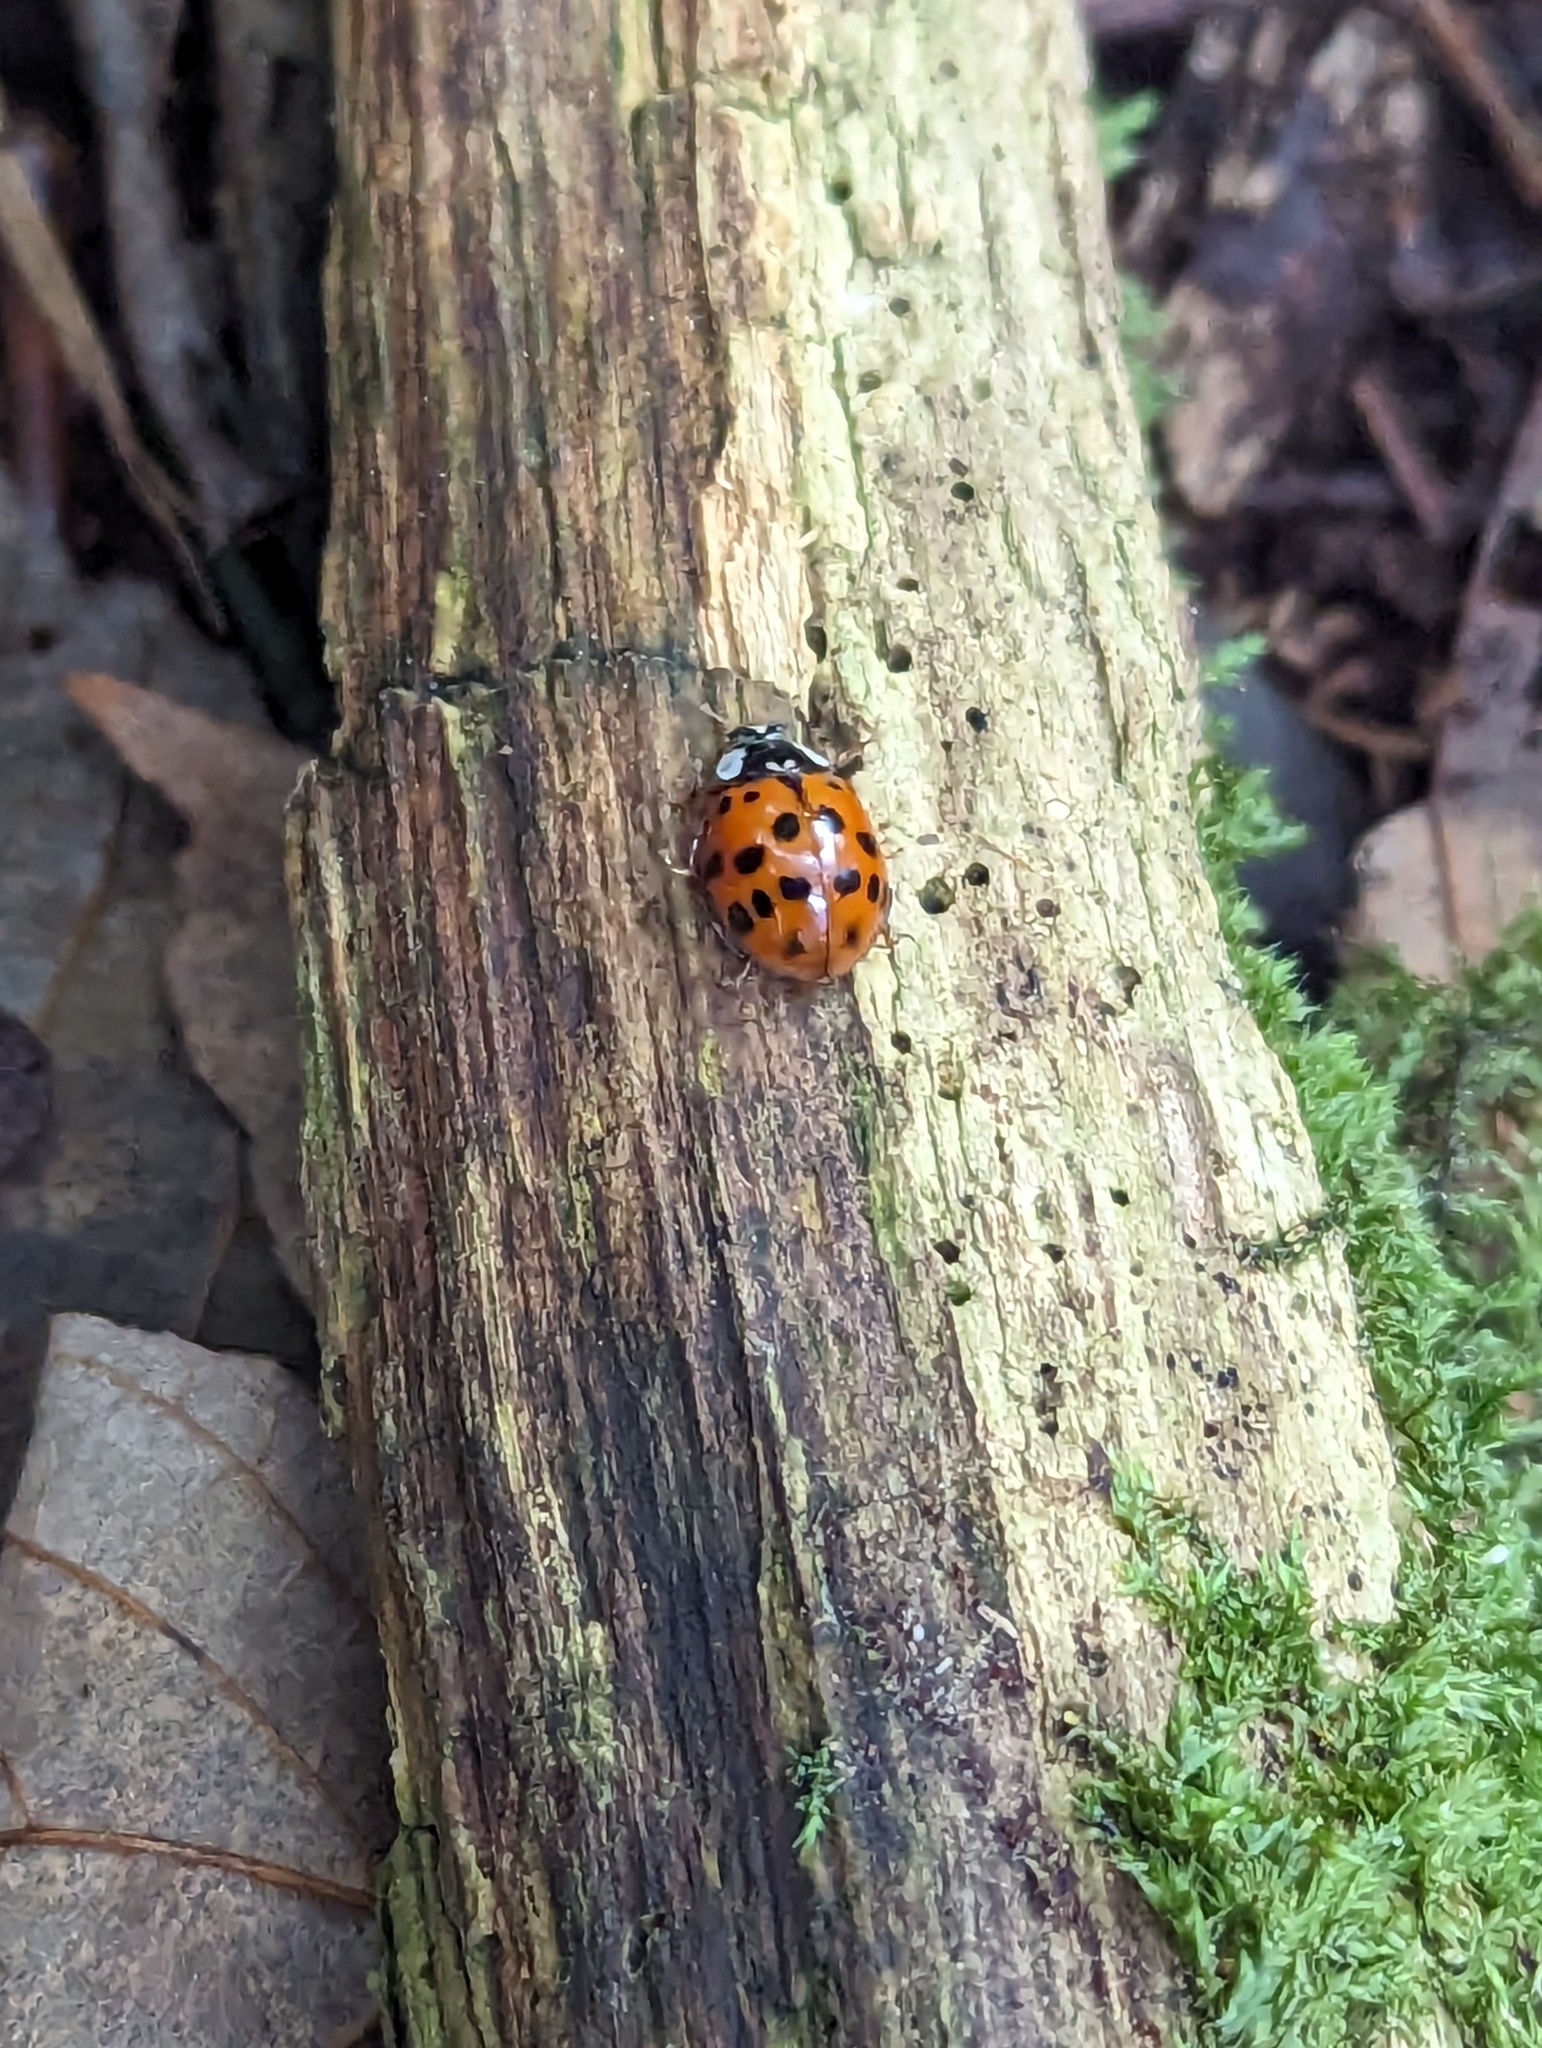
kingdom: Animalia
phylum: Arthropoda
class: Insecta
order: Coleoptera
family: Coccinellidae
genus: Harmonia
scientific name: Harmonia axyridis
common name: Harlequin ladybird
